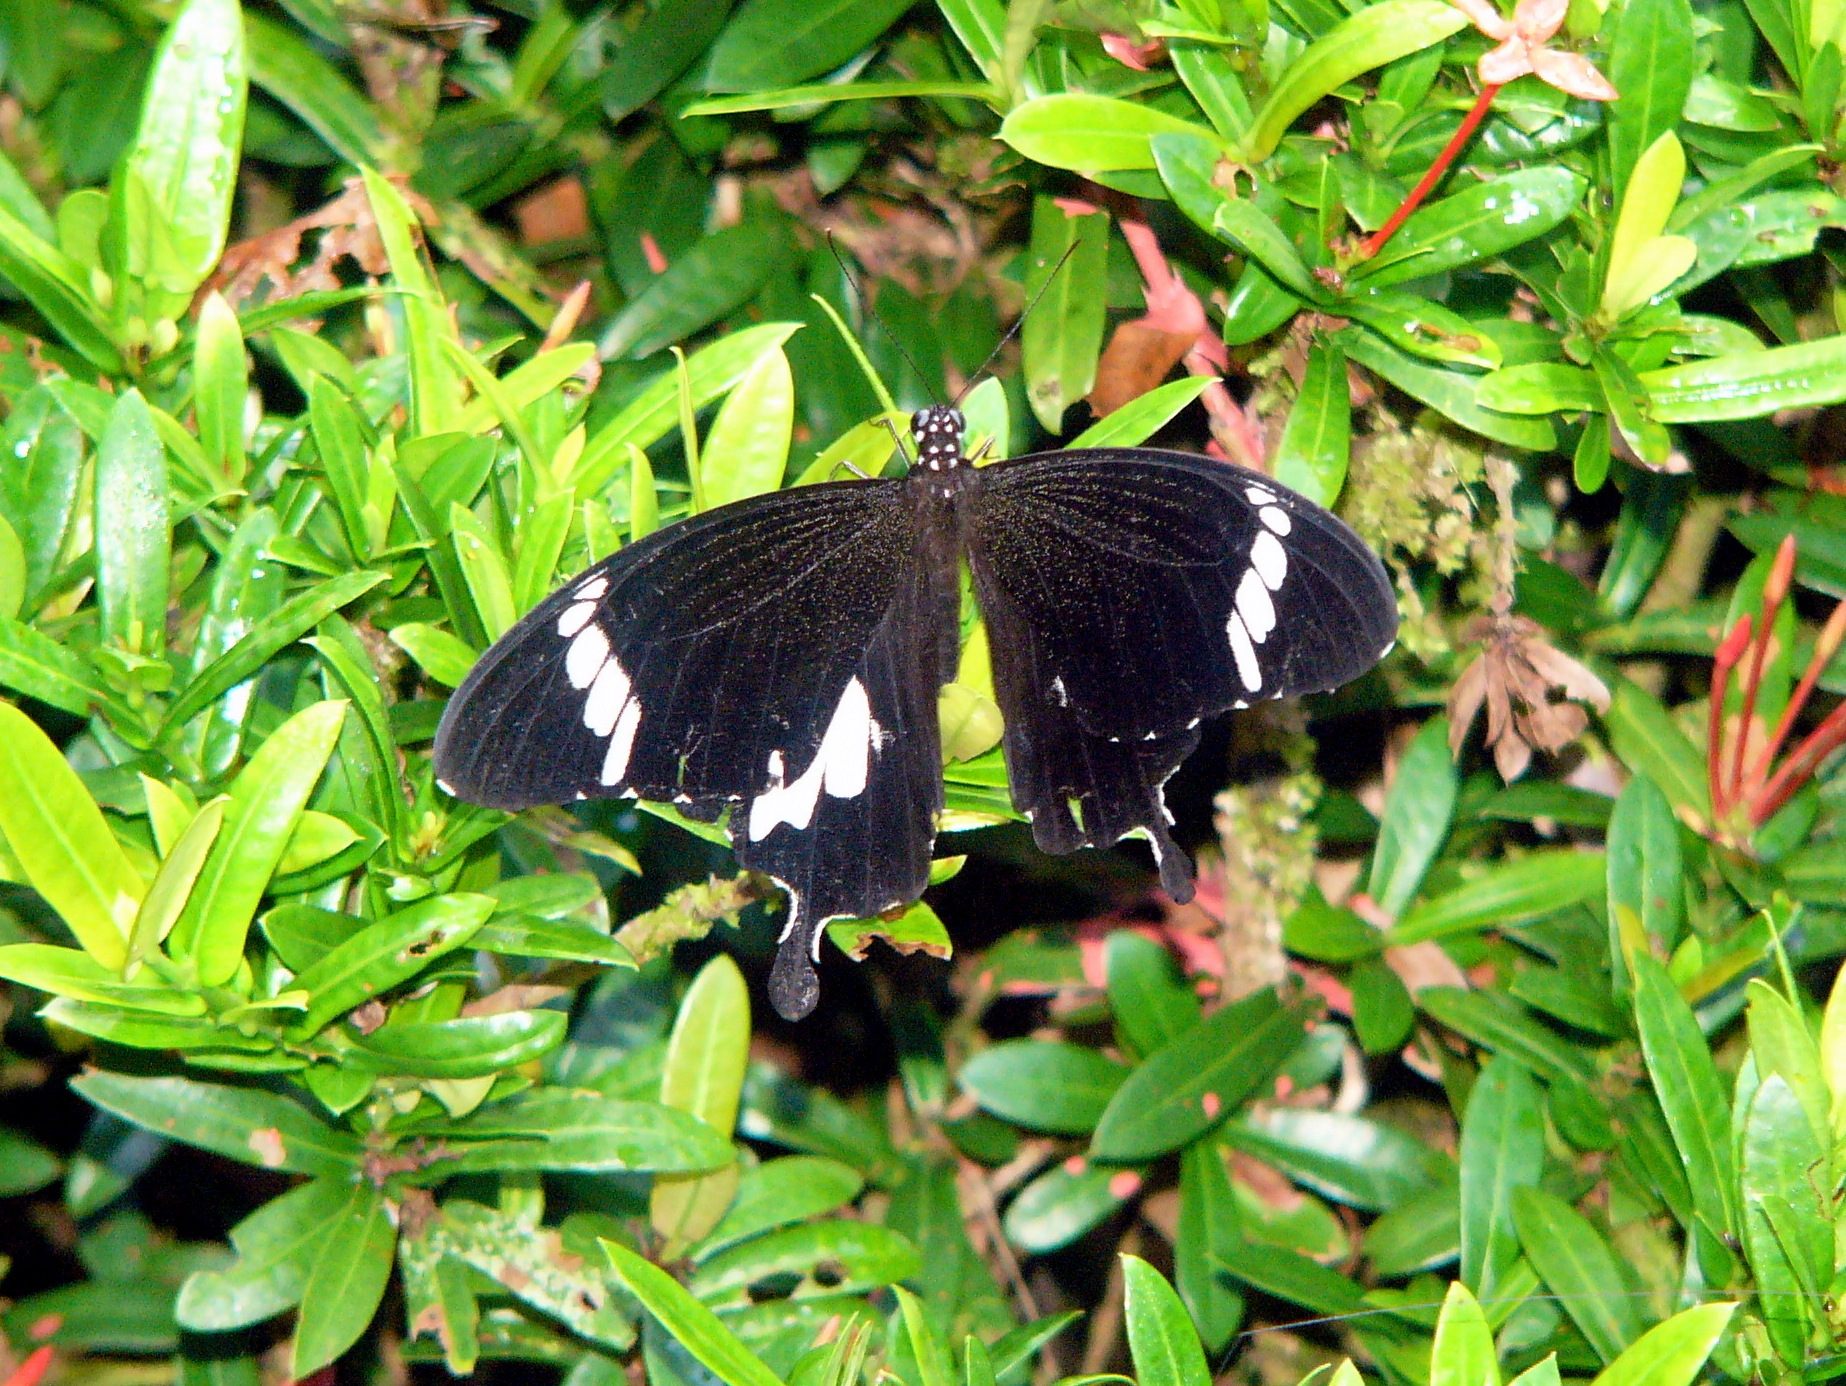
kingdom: Animalia
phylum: Arthropoda
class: Insecta
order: Lepidoptera
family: Papilionidae
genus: Papilio
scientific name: Papilio nephelus
